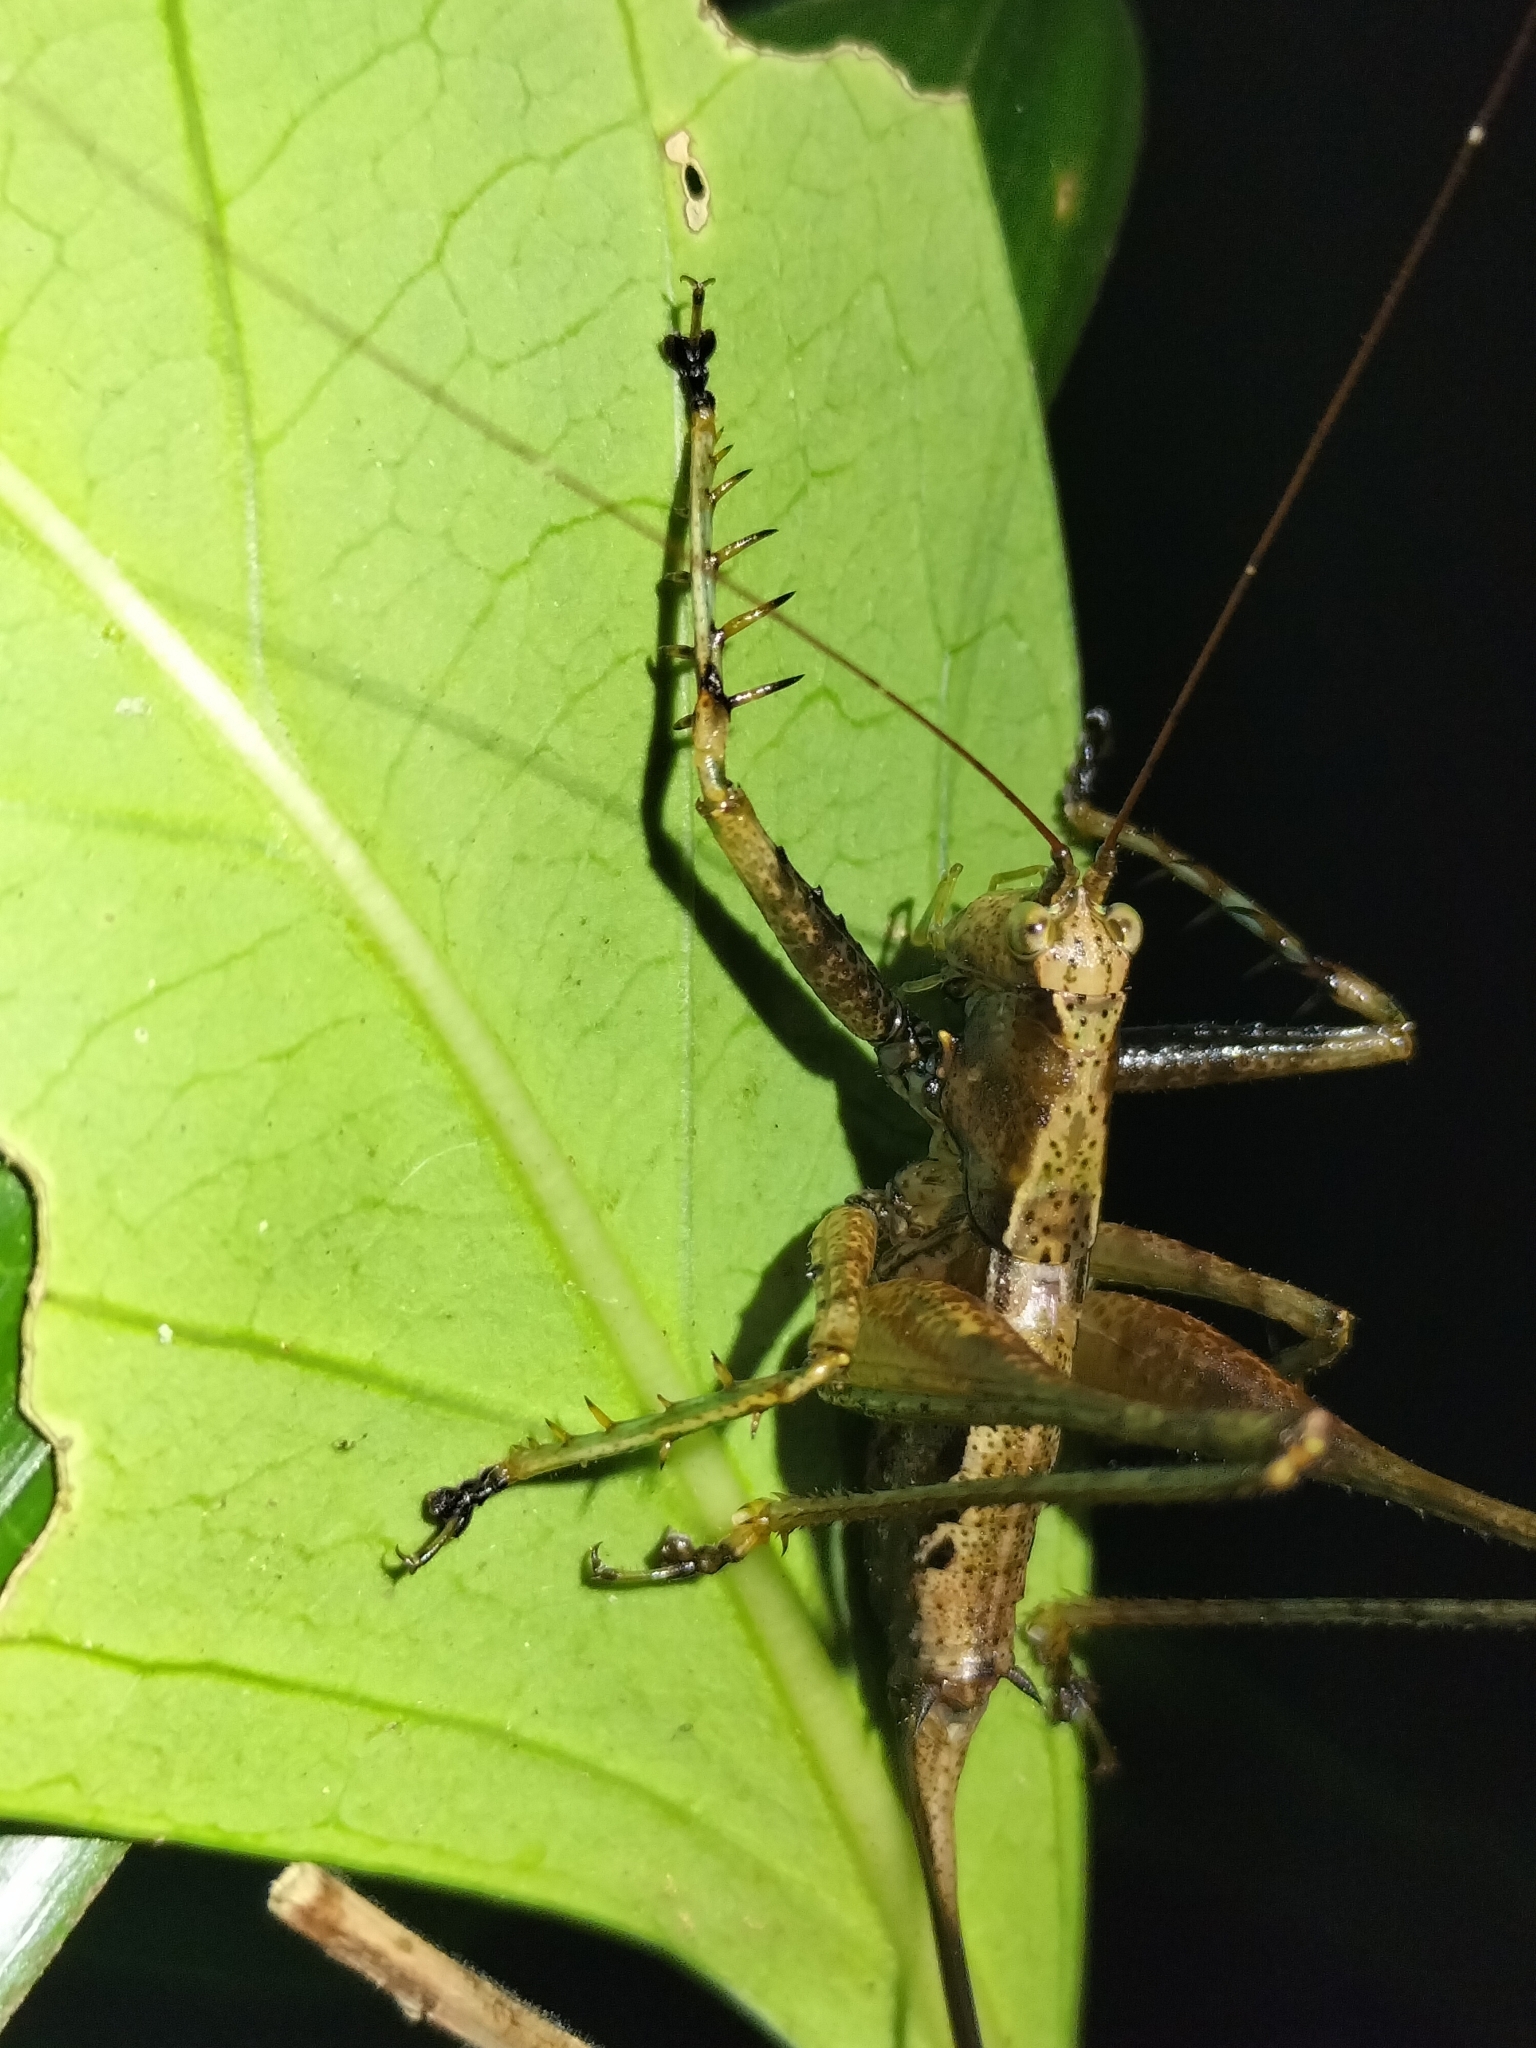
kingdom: Animalia
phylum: Arthropoda
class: Insecta
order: Orthoptera
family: Tettigoniidae
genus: Xingbaoia
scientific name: Xingbaoia karakara
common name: Jin's ginger katydid
